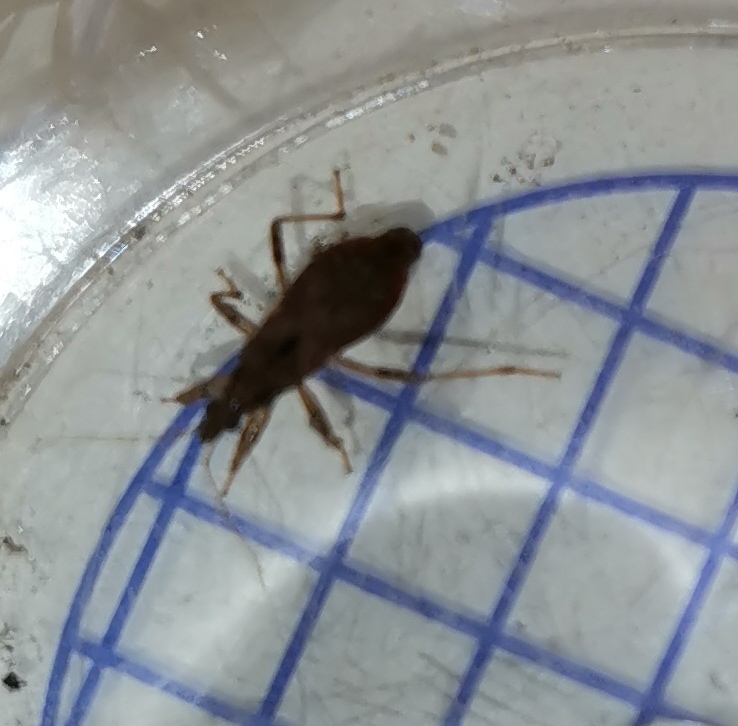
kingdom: Animalia
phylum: Arthropoda
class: Insecta
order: Hemiptera
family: Nabidae
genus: Himacerus
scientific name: Himacerus mirmicoides
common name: Ant damsel bug
